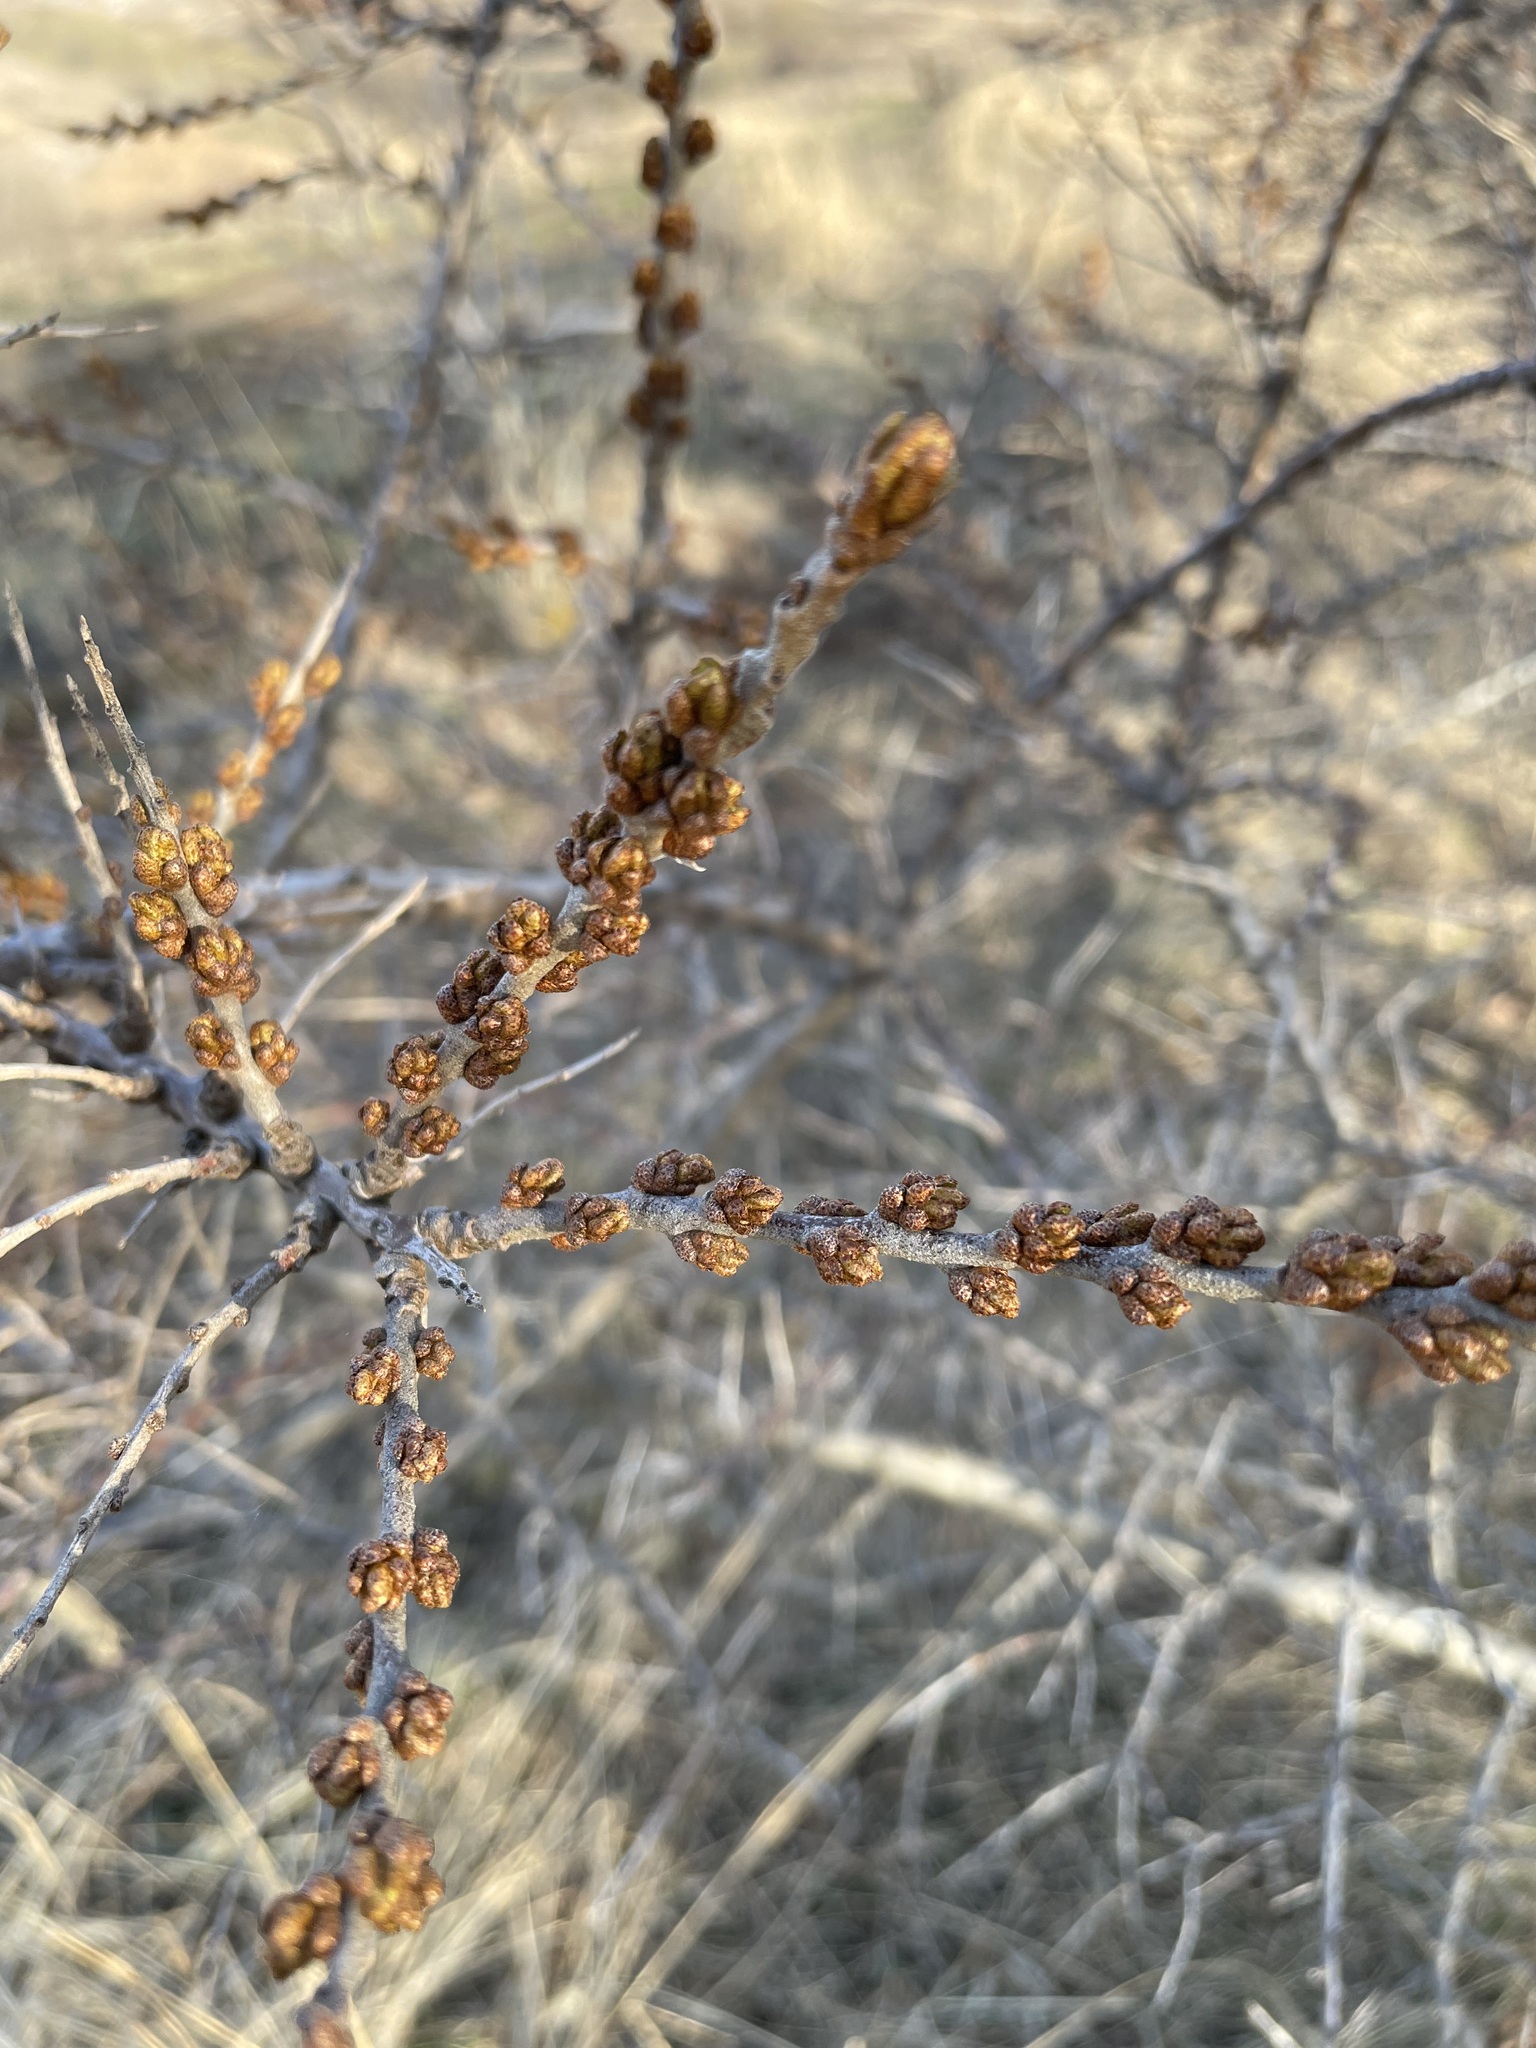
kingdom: Plantae
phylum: Tracheophyta
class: Magnoliopsida
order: Rosales
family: Elaeagnaceae
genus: Hippophae
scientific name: Hippophae rhamnoides
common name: Sea-buckthorn
